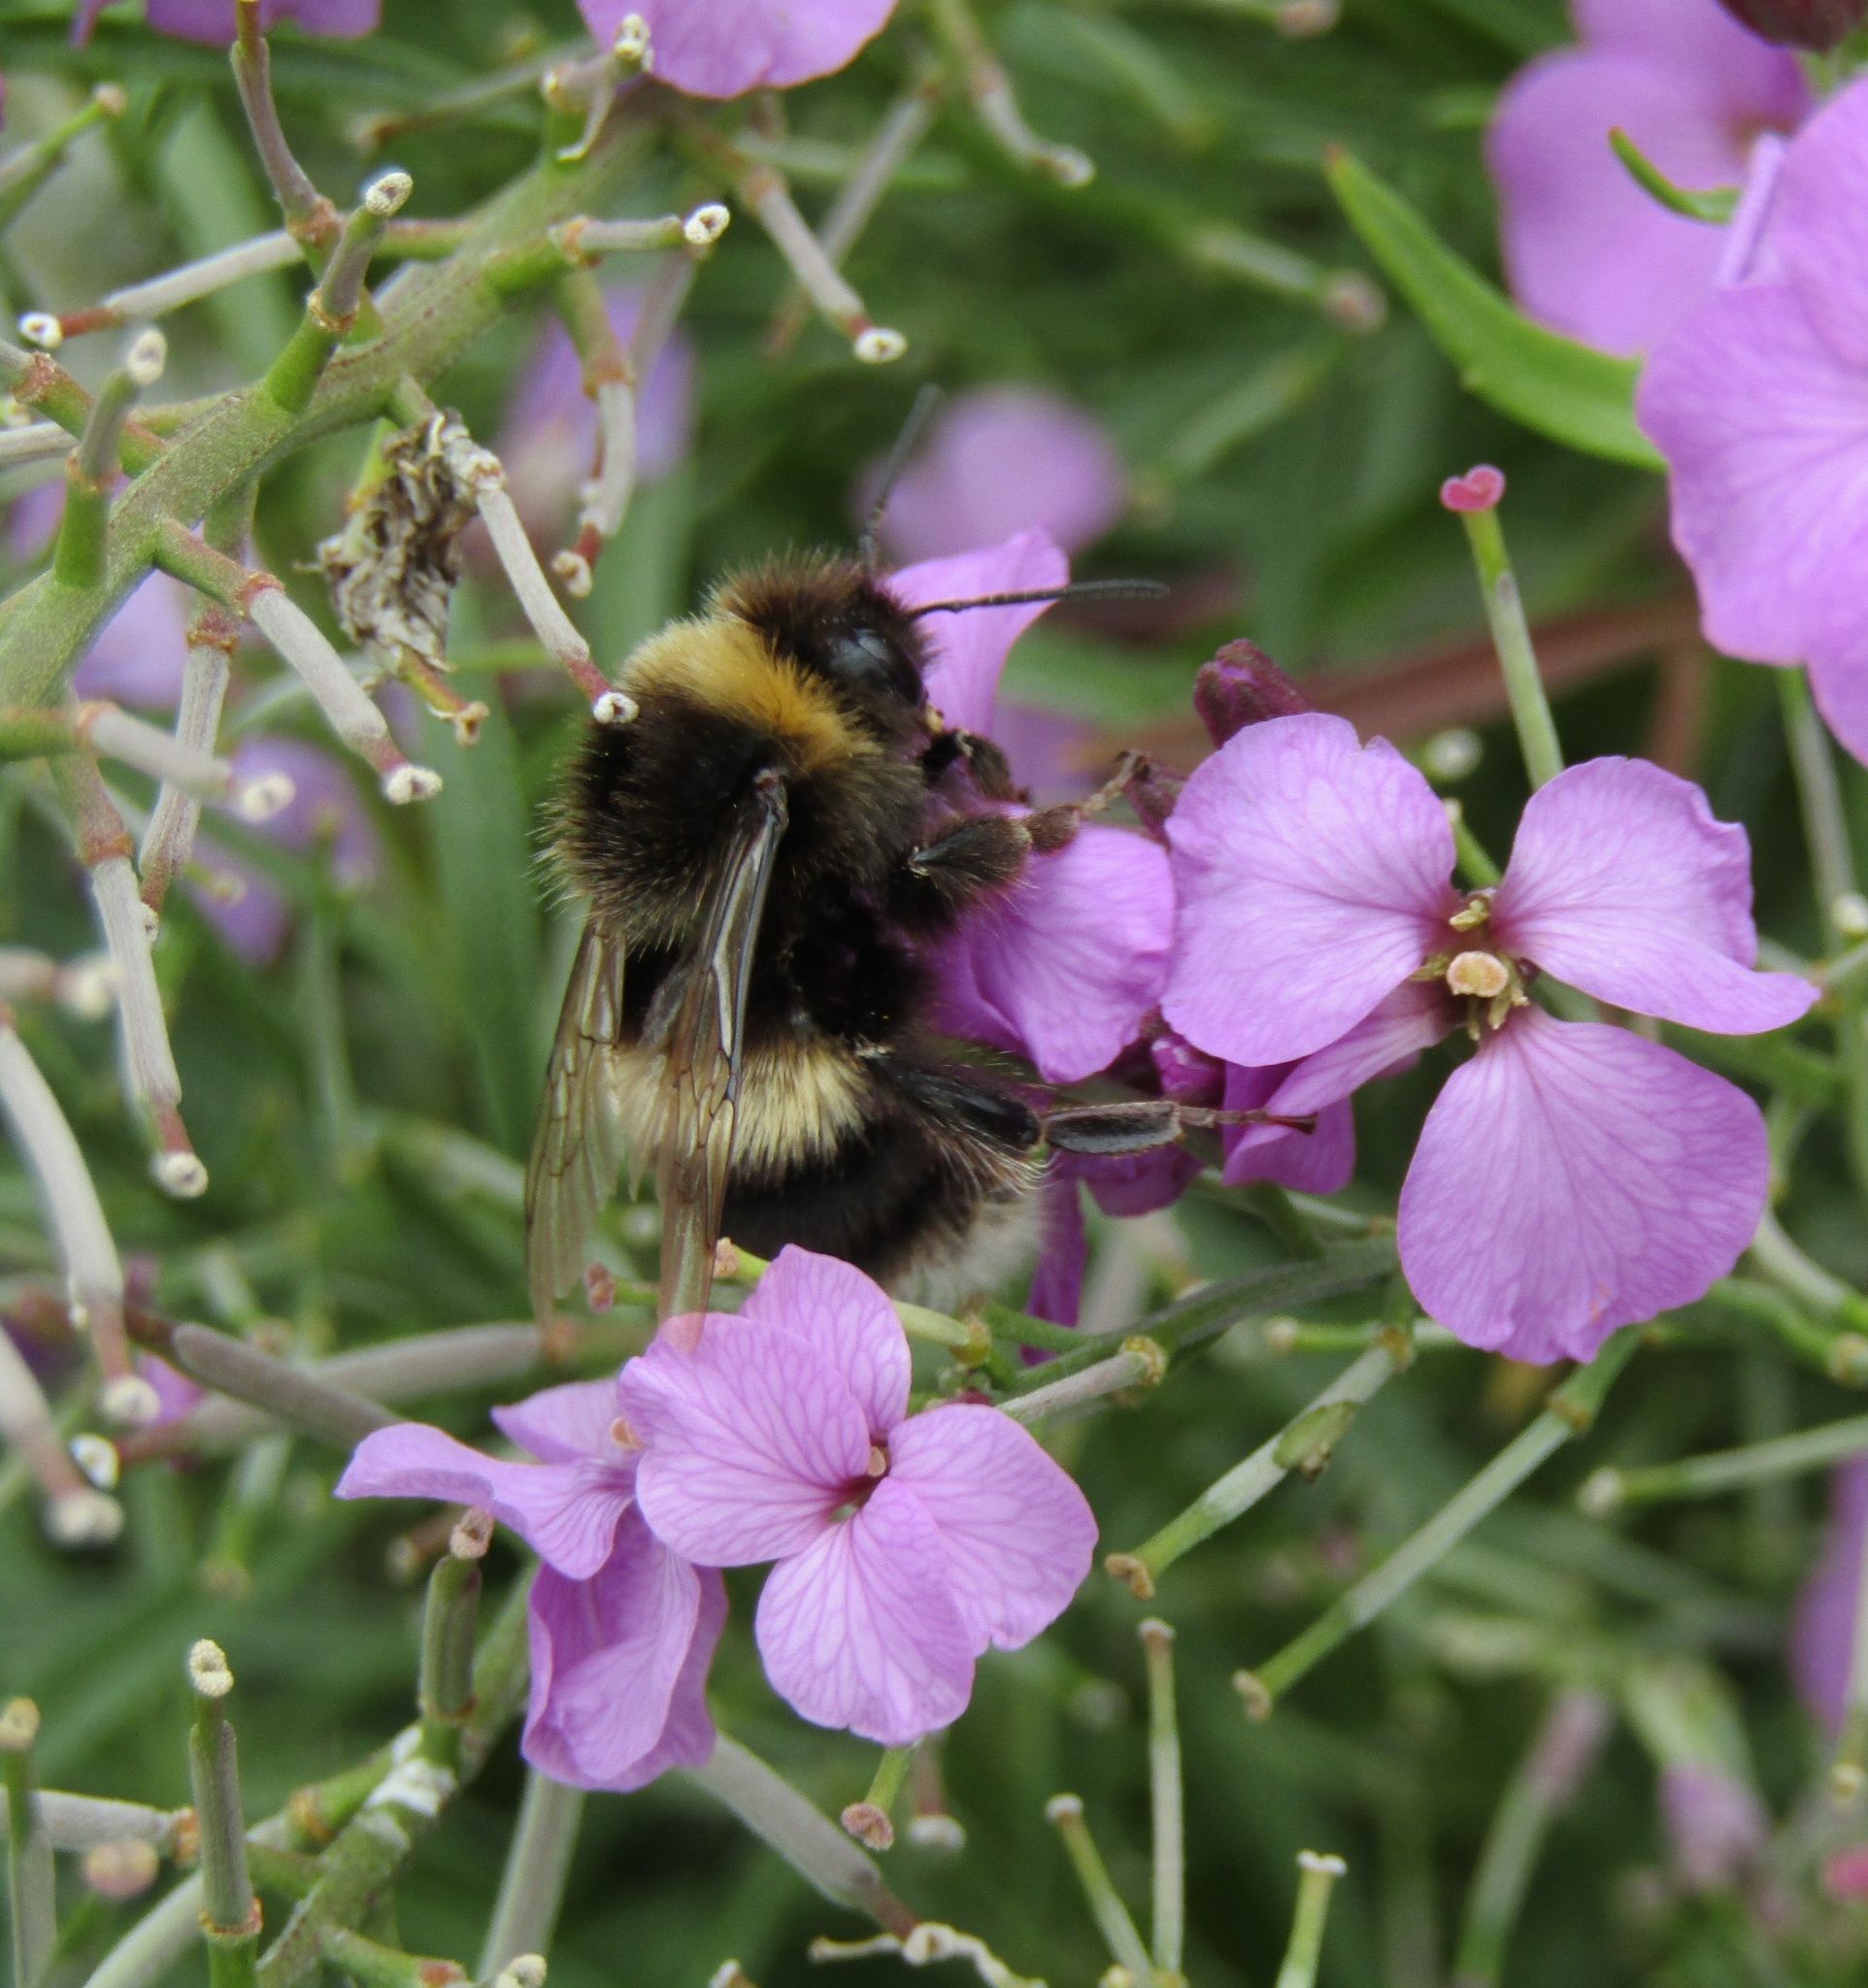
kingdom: Animalia
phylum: Arthropoda
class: Insecta
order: Hymenoptera
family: Apidae
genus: Bombus
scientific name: Bombus terrestris
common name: Buff-tailed bumblebee
